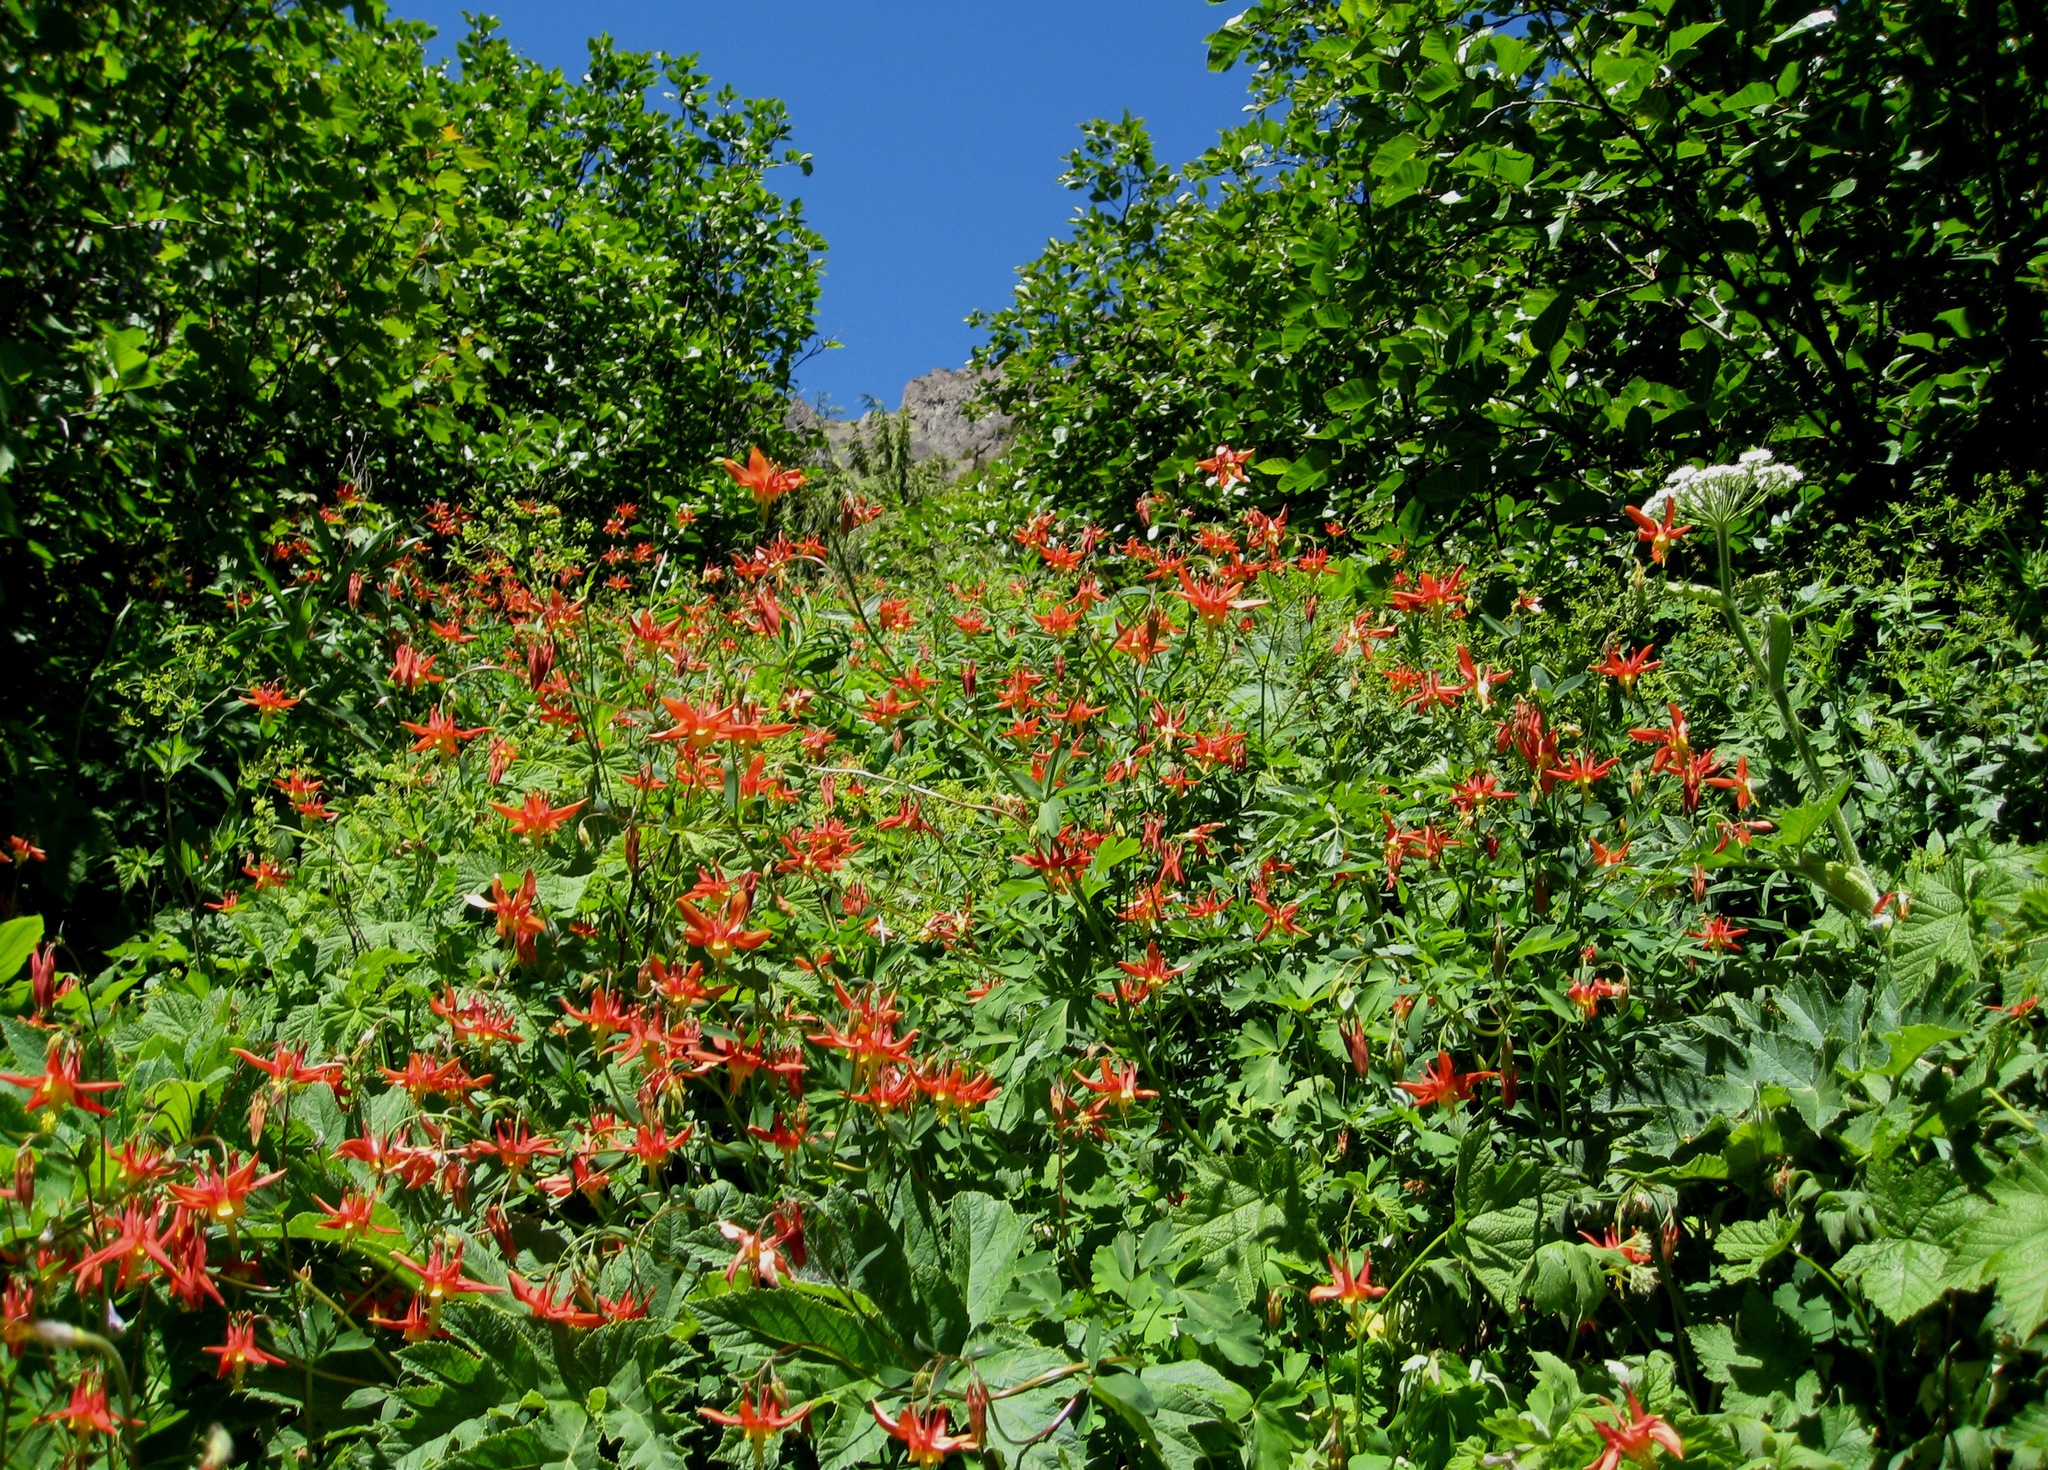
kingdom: Plantae
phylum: Tracheophyta
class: Magnoliopsida
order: Ranunculales
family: Ranunculaceae
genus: Aquilegia
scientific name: Aquilegia formosa
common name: Sitka columbine
